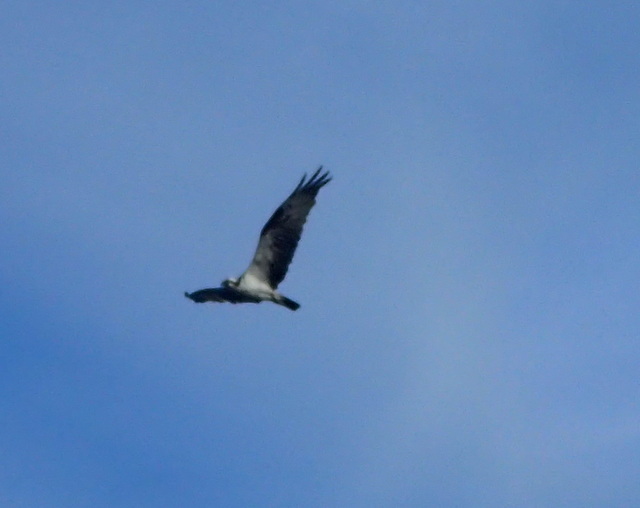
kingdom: Animalia
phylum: Chordata
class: Aves
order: Accipitriformes
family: Pandionidae
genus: Pandion
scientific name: Pandion haliaetus
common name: Osprey
